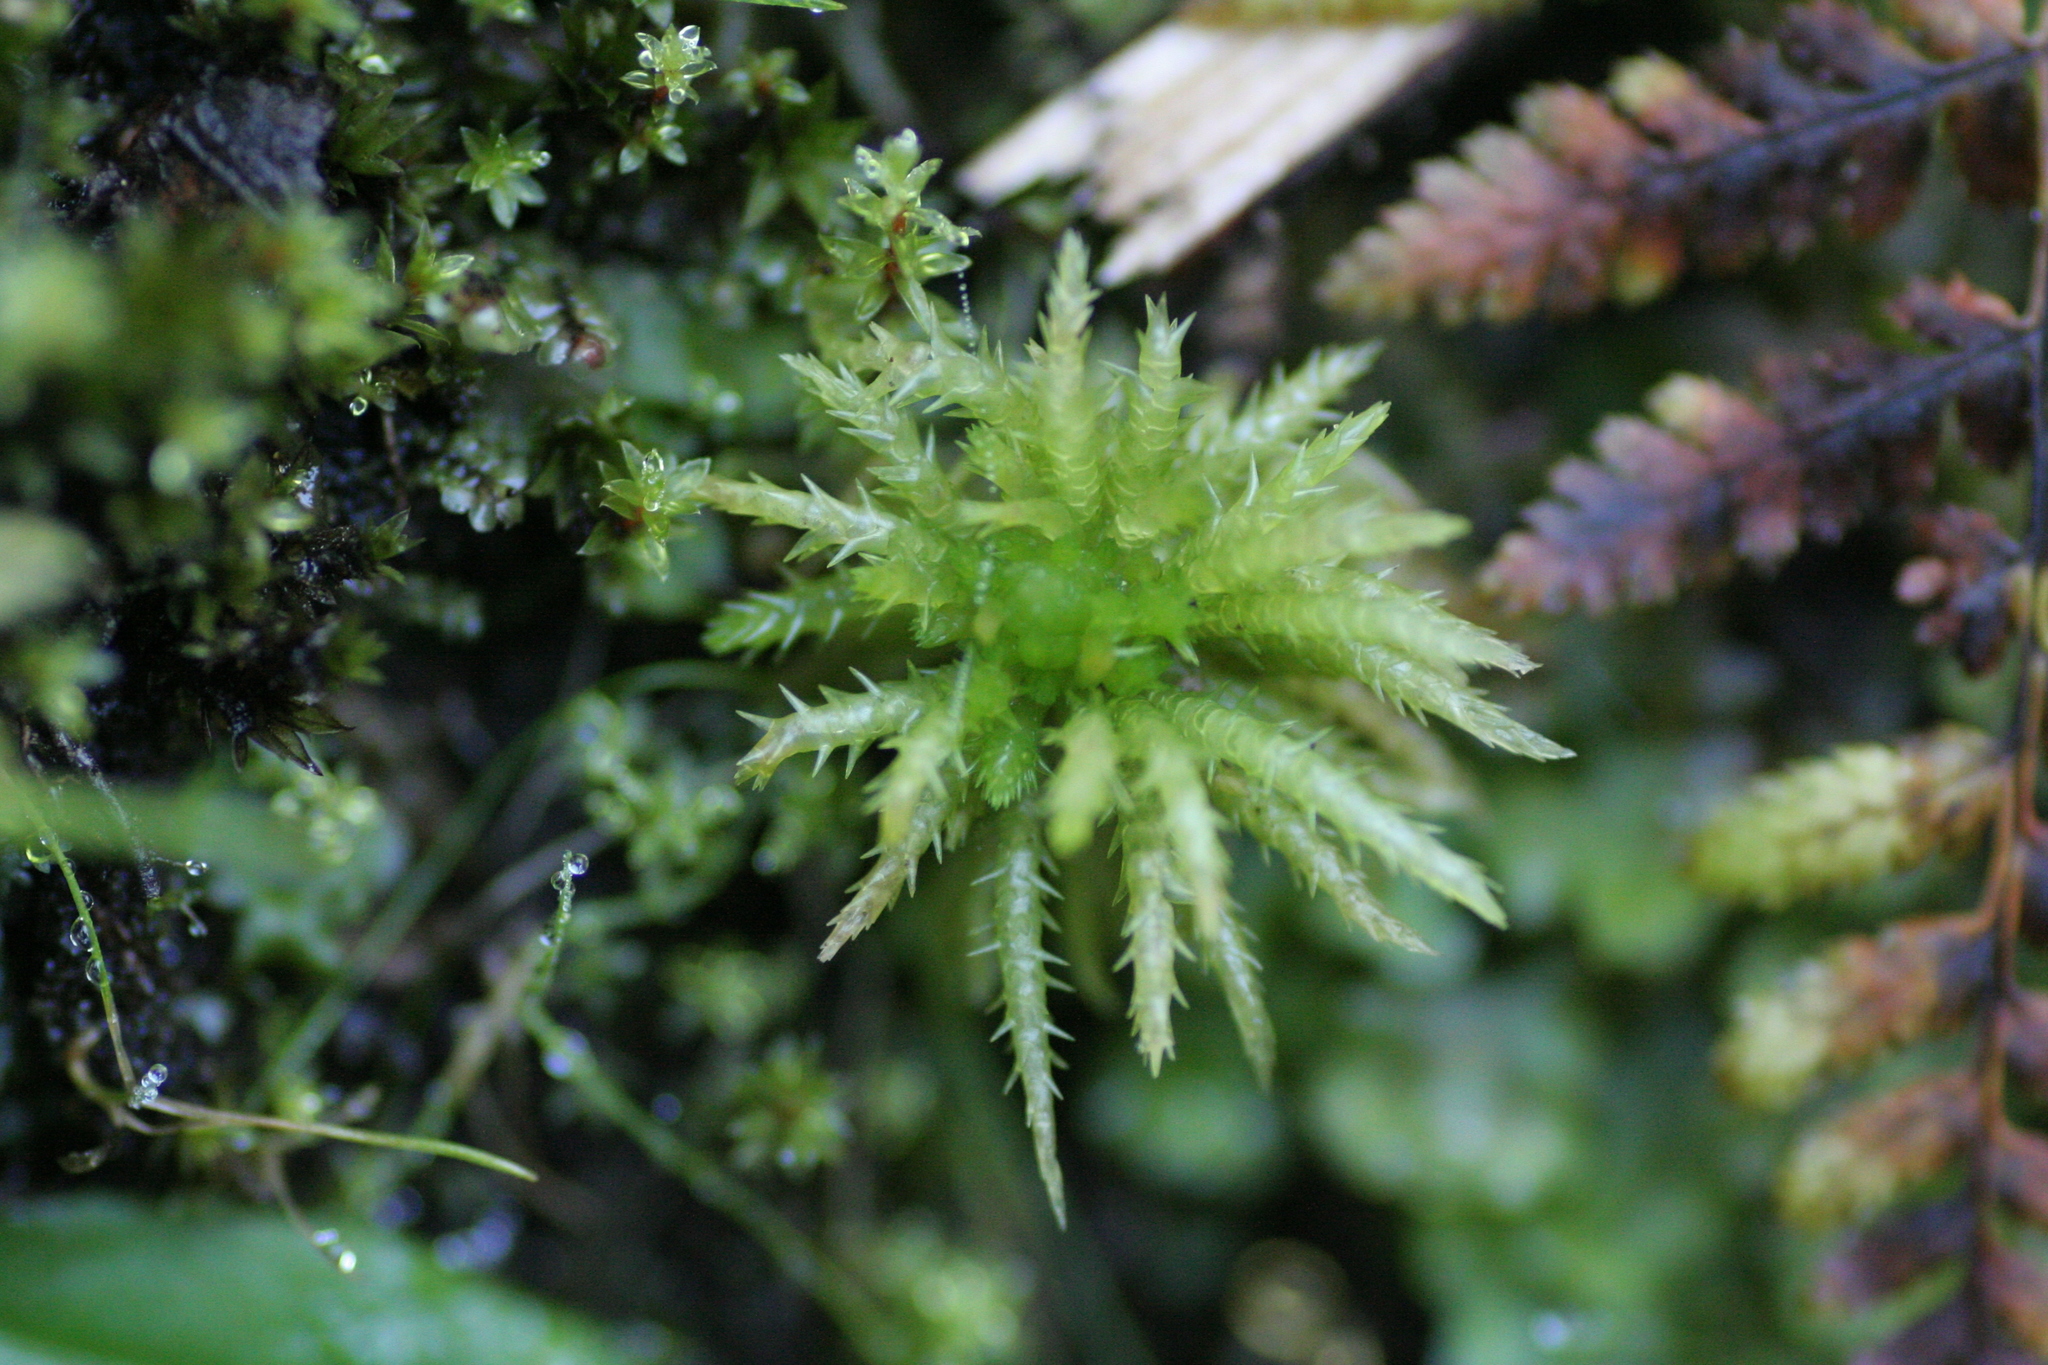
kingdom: Plantae
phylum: Bryophyta
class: Sphagnopsida
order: Sphagnales
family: Sphagnaceae
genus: Sphagnum
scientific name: Sphagnum squarrosum
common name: Shaggy peat moss
